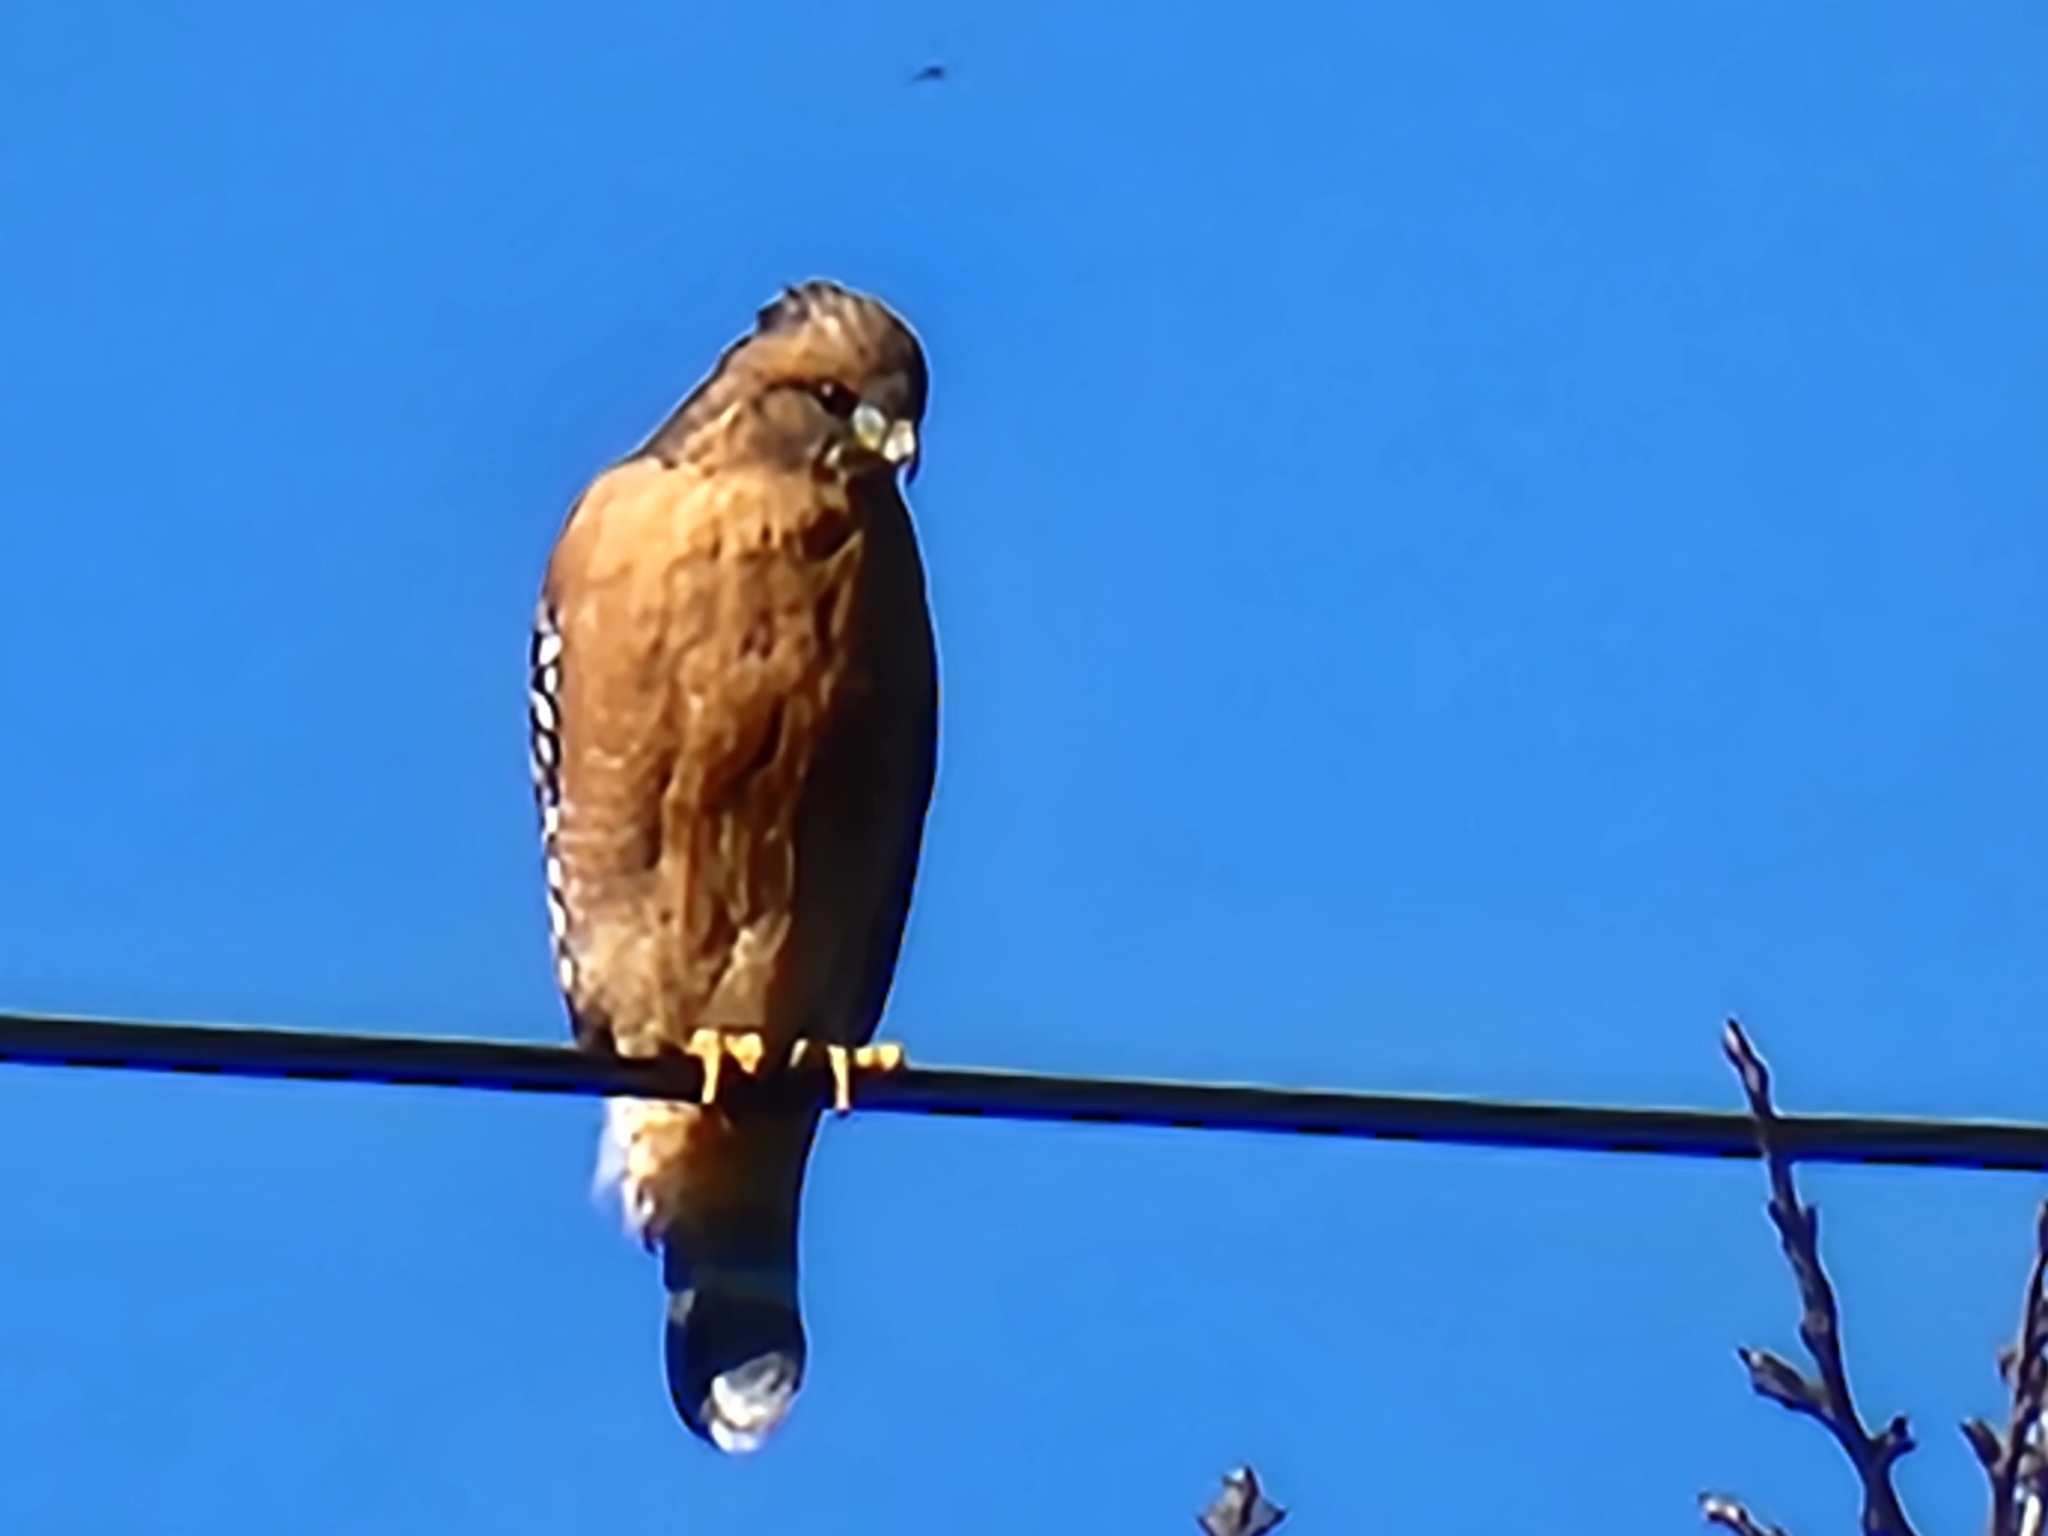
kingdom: Animalia
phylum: Chordata
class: Aves
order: Accipitriformes
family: Accipitridae
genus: Buteo
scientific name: Buteo lineatus
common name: Red-shouldered hawk
